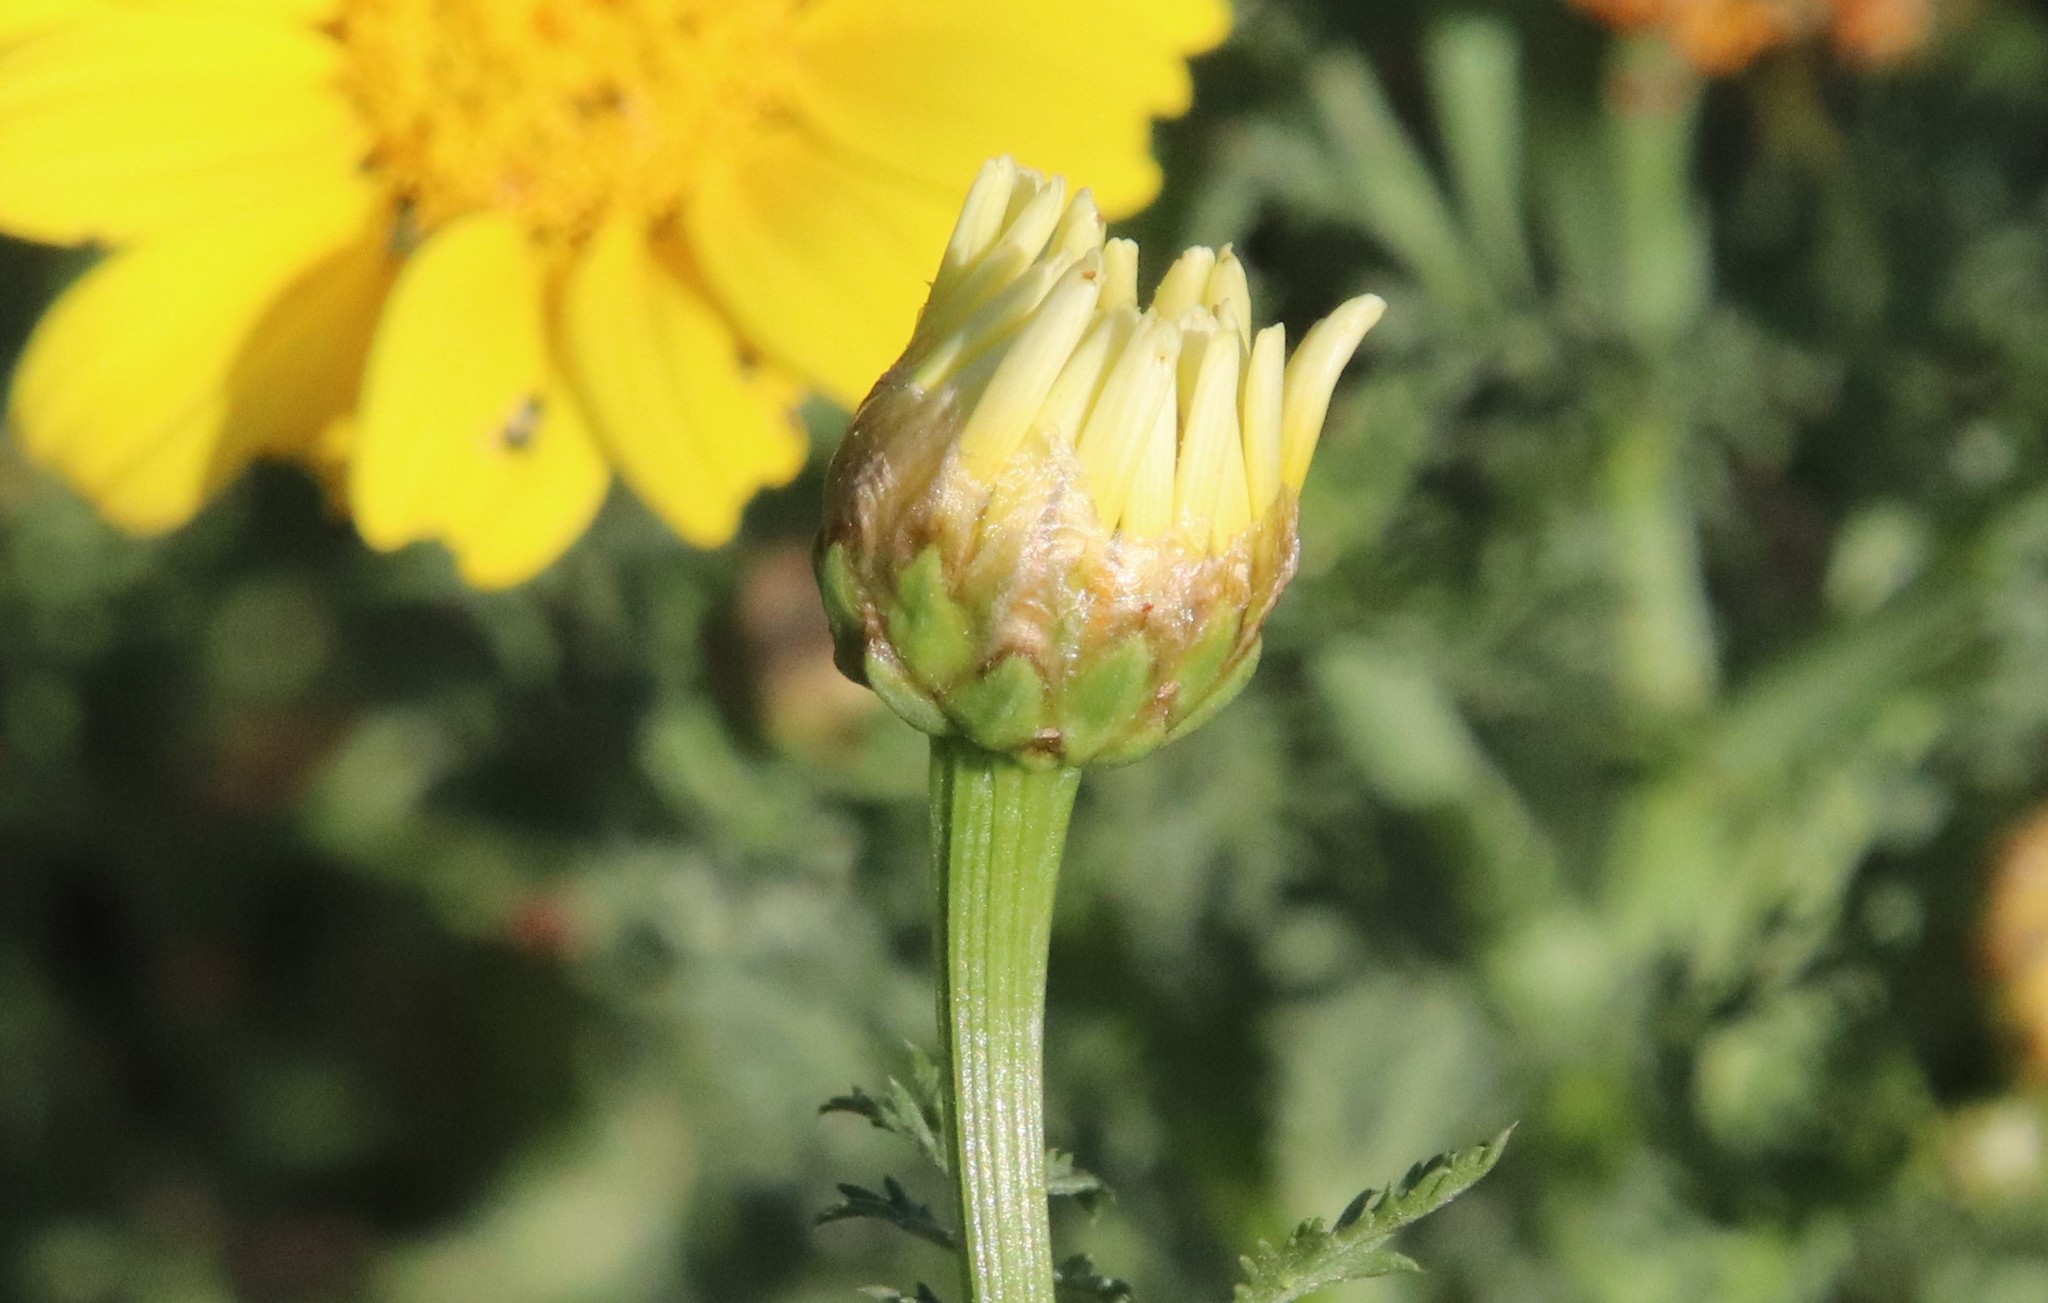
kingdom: Plantae
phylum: Tracheophyta
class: Magnoliopsida
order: Asterales
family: Asteraceae
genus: Glebionis
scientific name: Glebionis coronaria
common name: Crowndaisy
